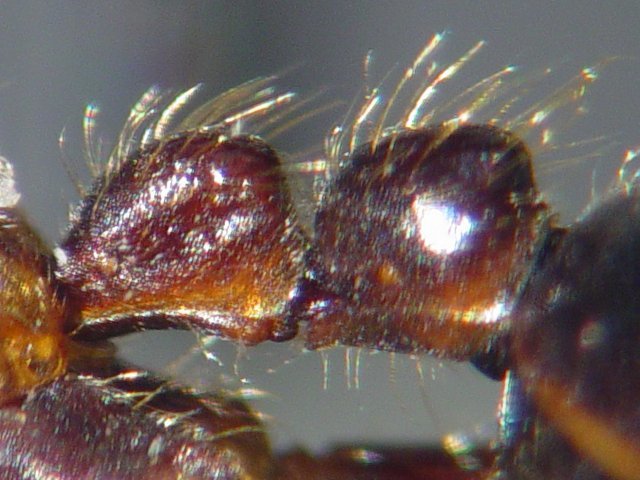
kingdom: Animalia
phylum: Arthropoda
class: Insecta
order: Hymenoptera
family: Formicidae
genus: Labidus
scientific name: Labidus praedator
